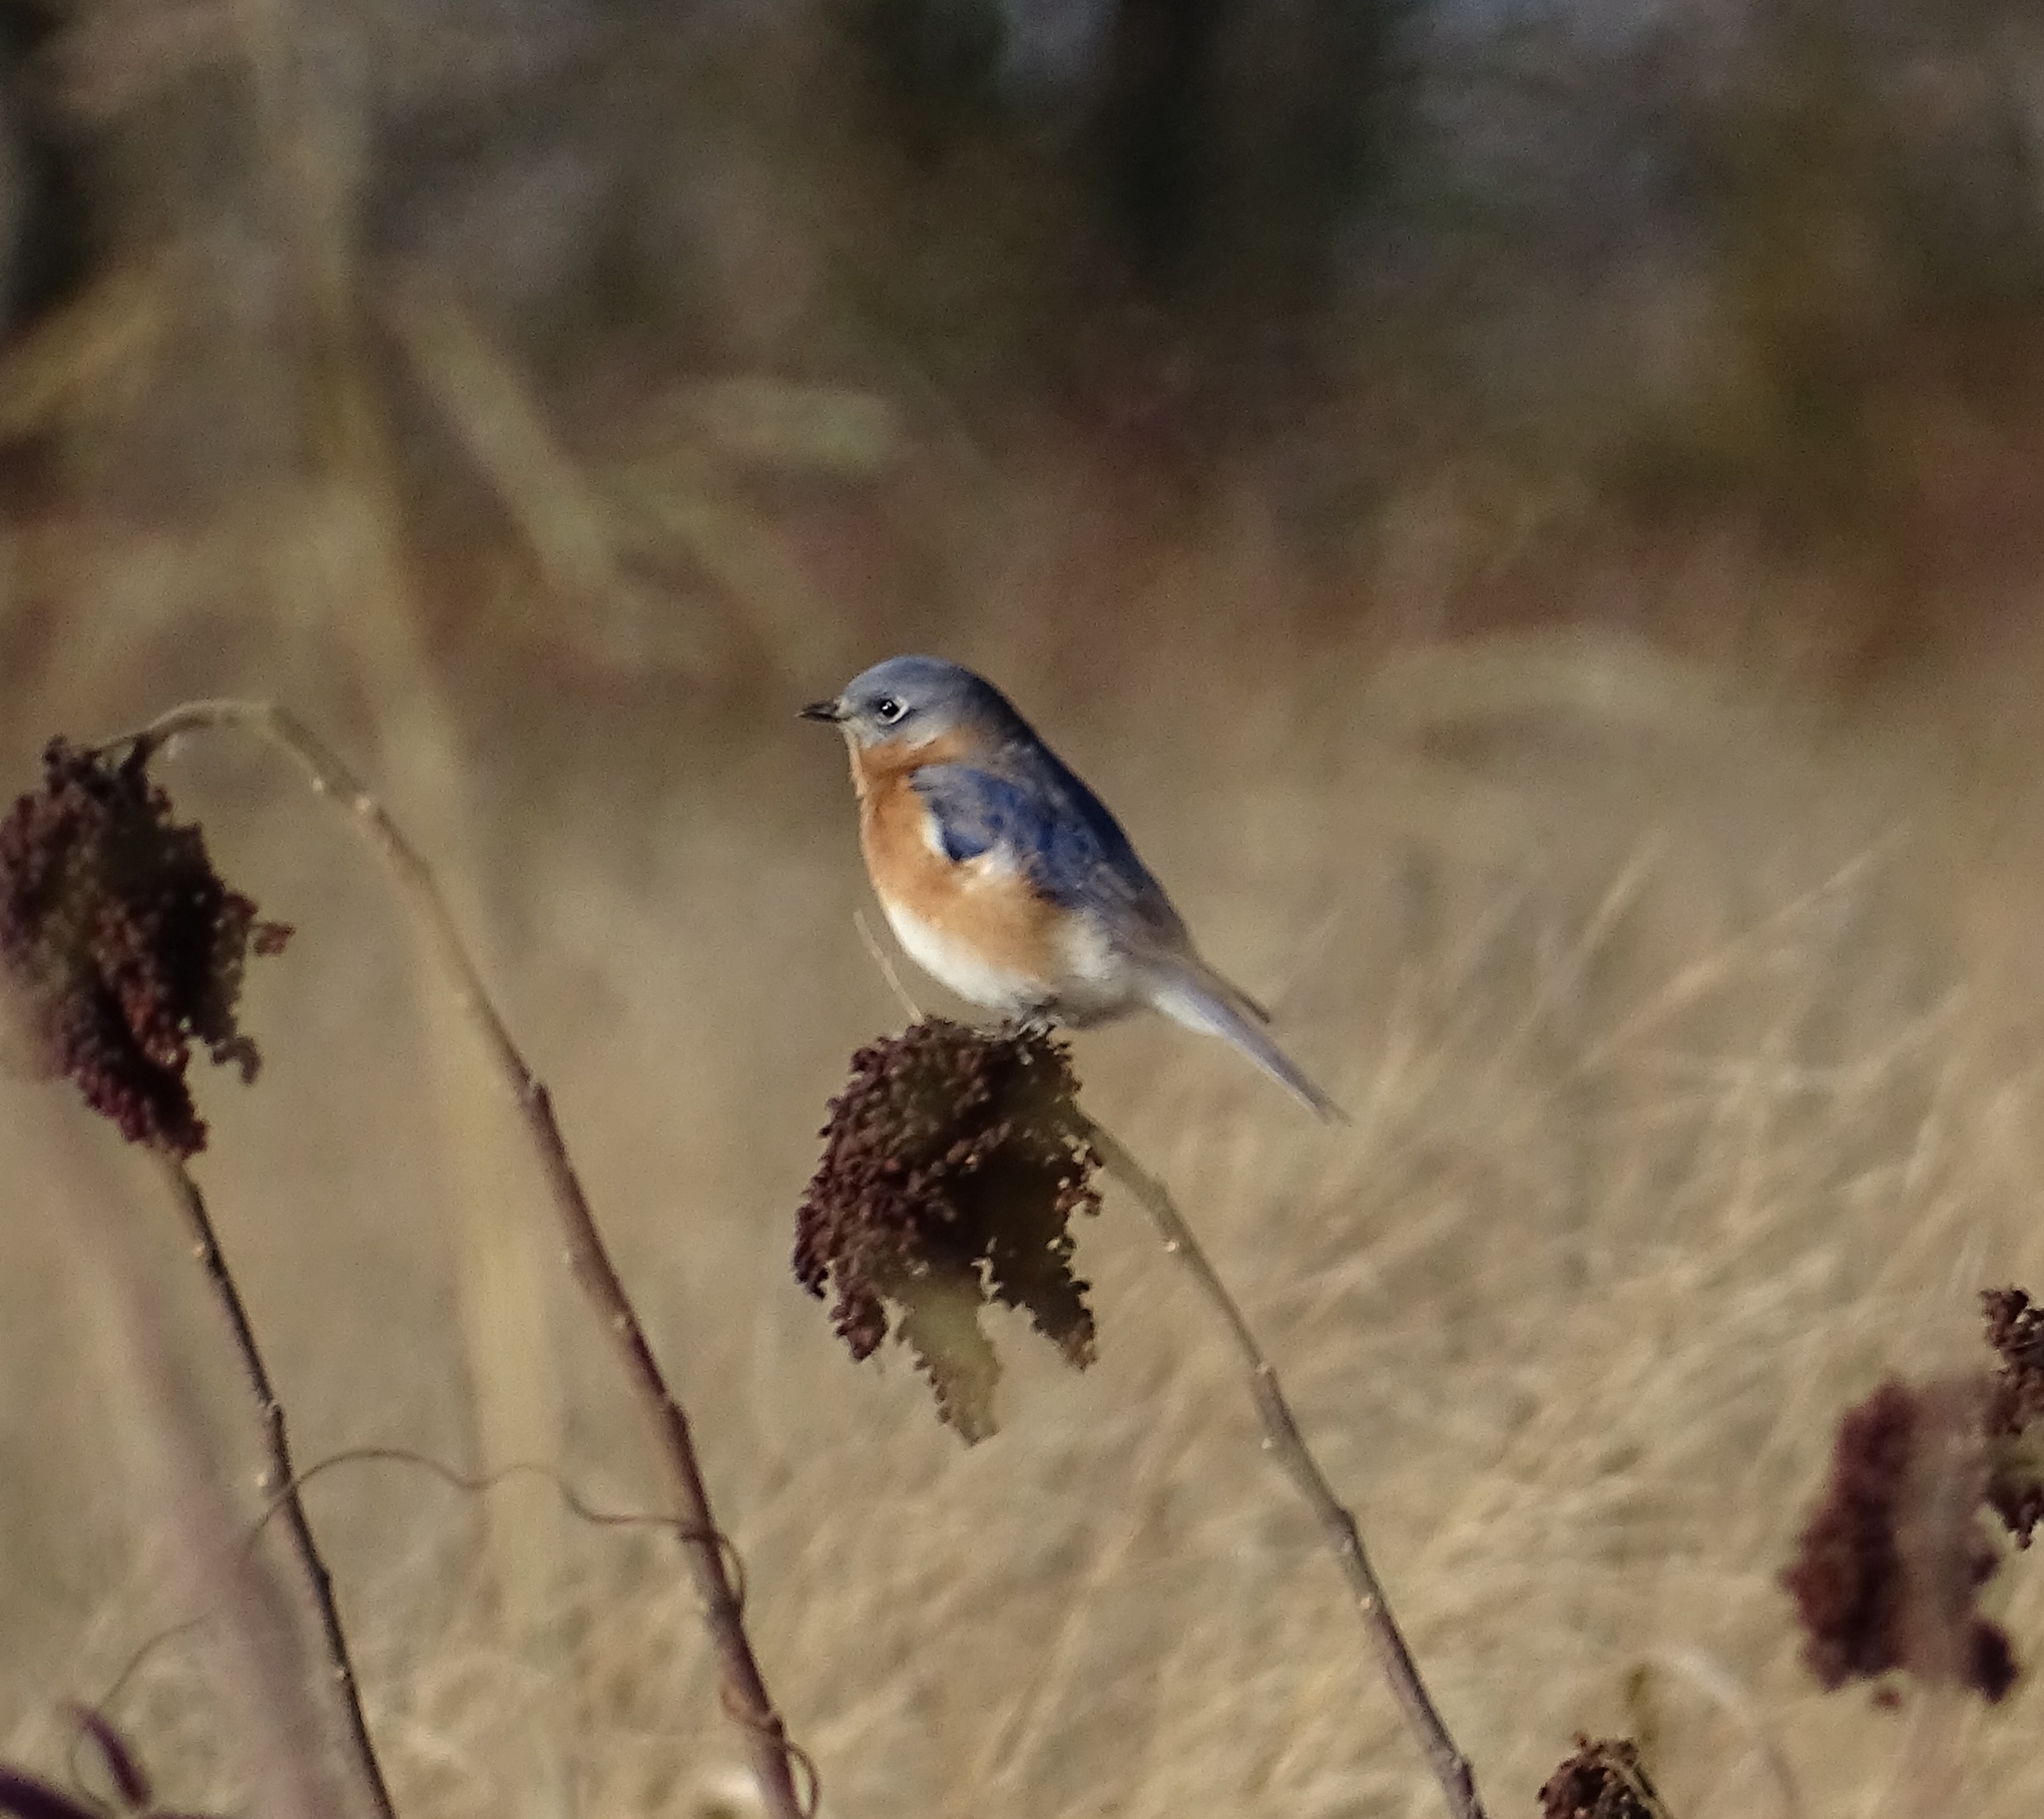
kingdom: Animalia
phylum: Chordata
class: Aves
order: Passeriformes
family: Turdidae
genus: Sialia
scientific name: Sialia sialis
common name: Eastern bluebird
